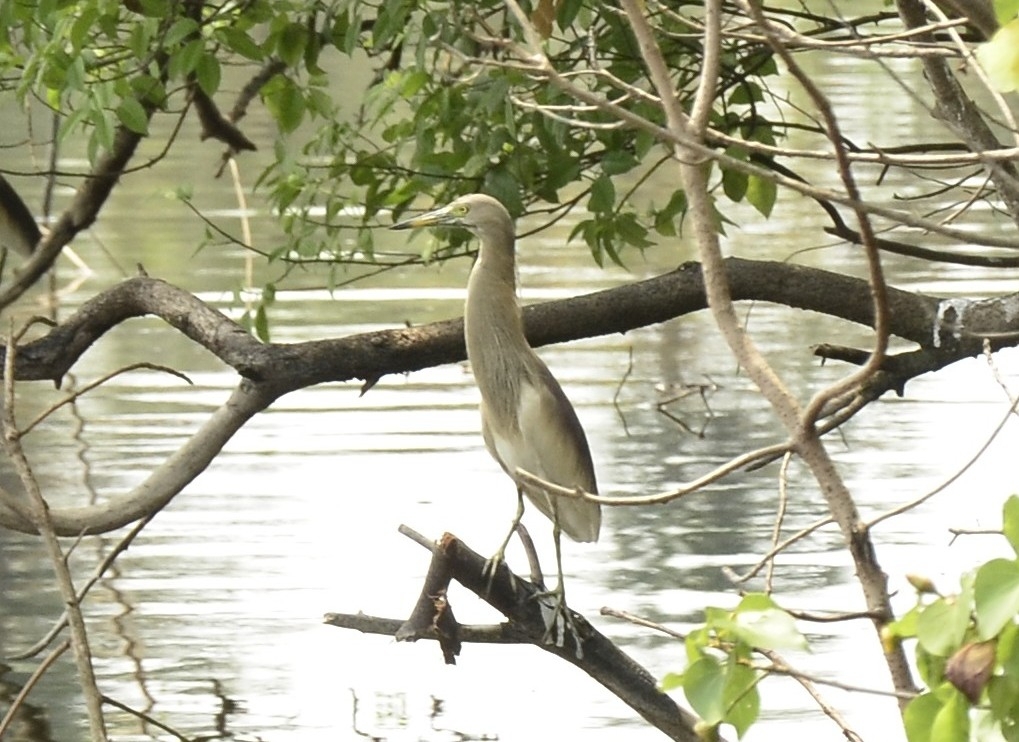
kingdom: Animalia
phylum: Chordata
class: Aves
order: Pelecaniformes
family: Ardeidae
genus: Ardeola
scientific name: Ardeola grayii
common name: Indian pond heron
